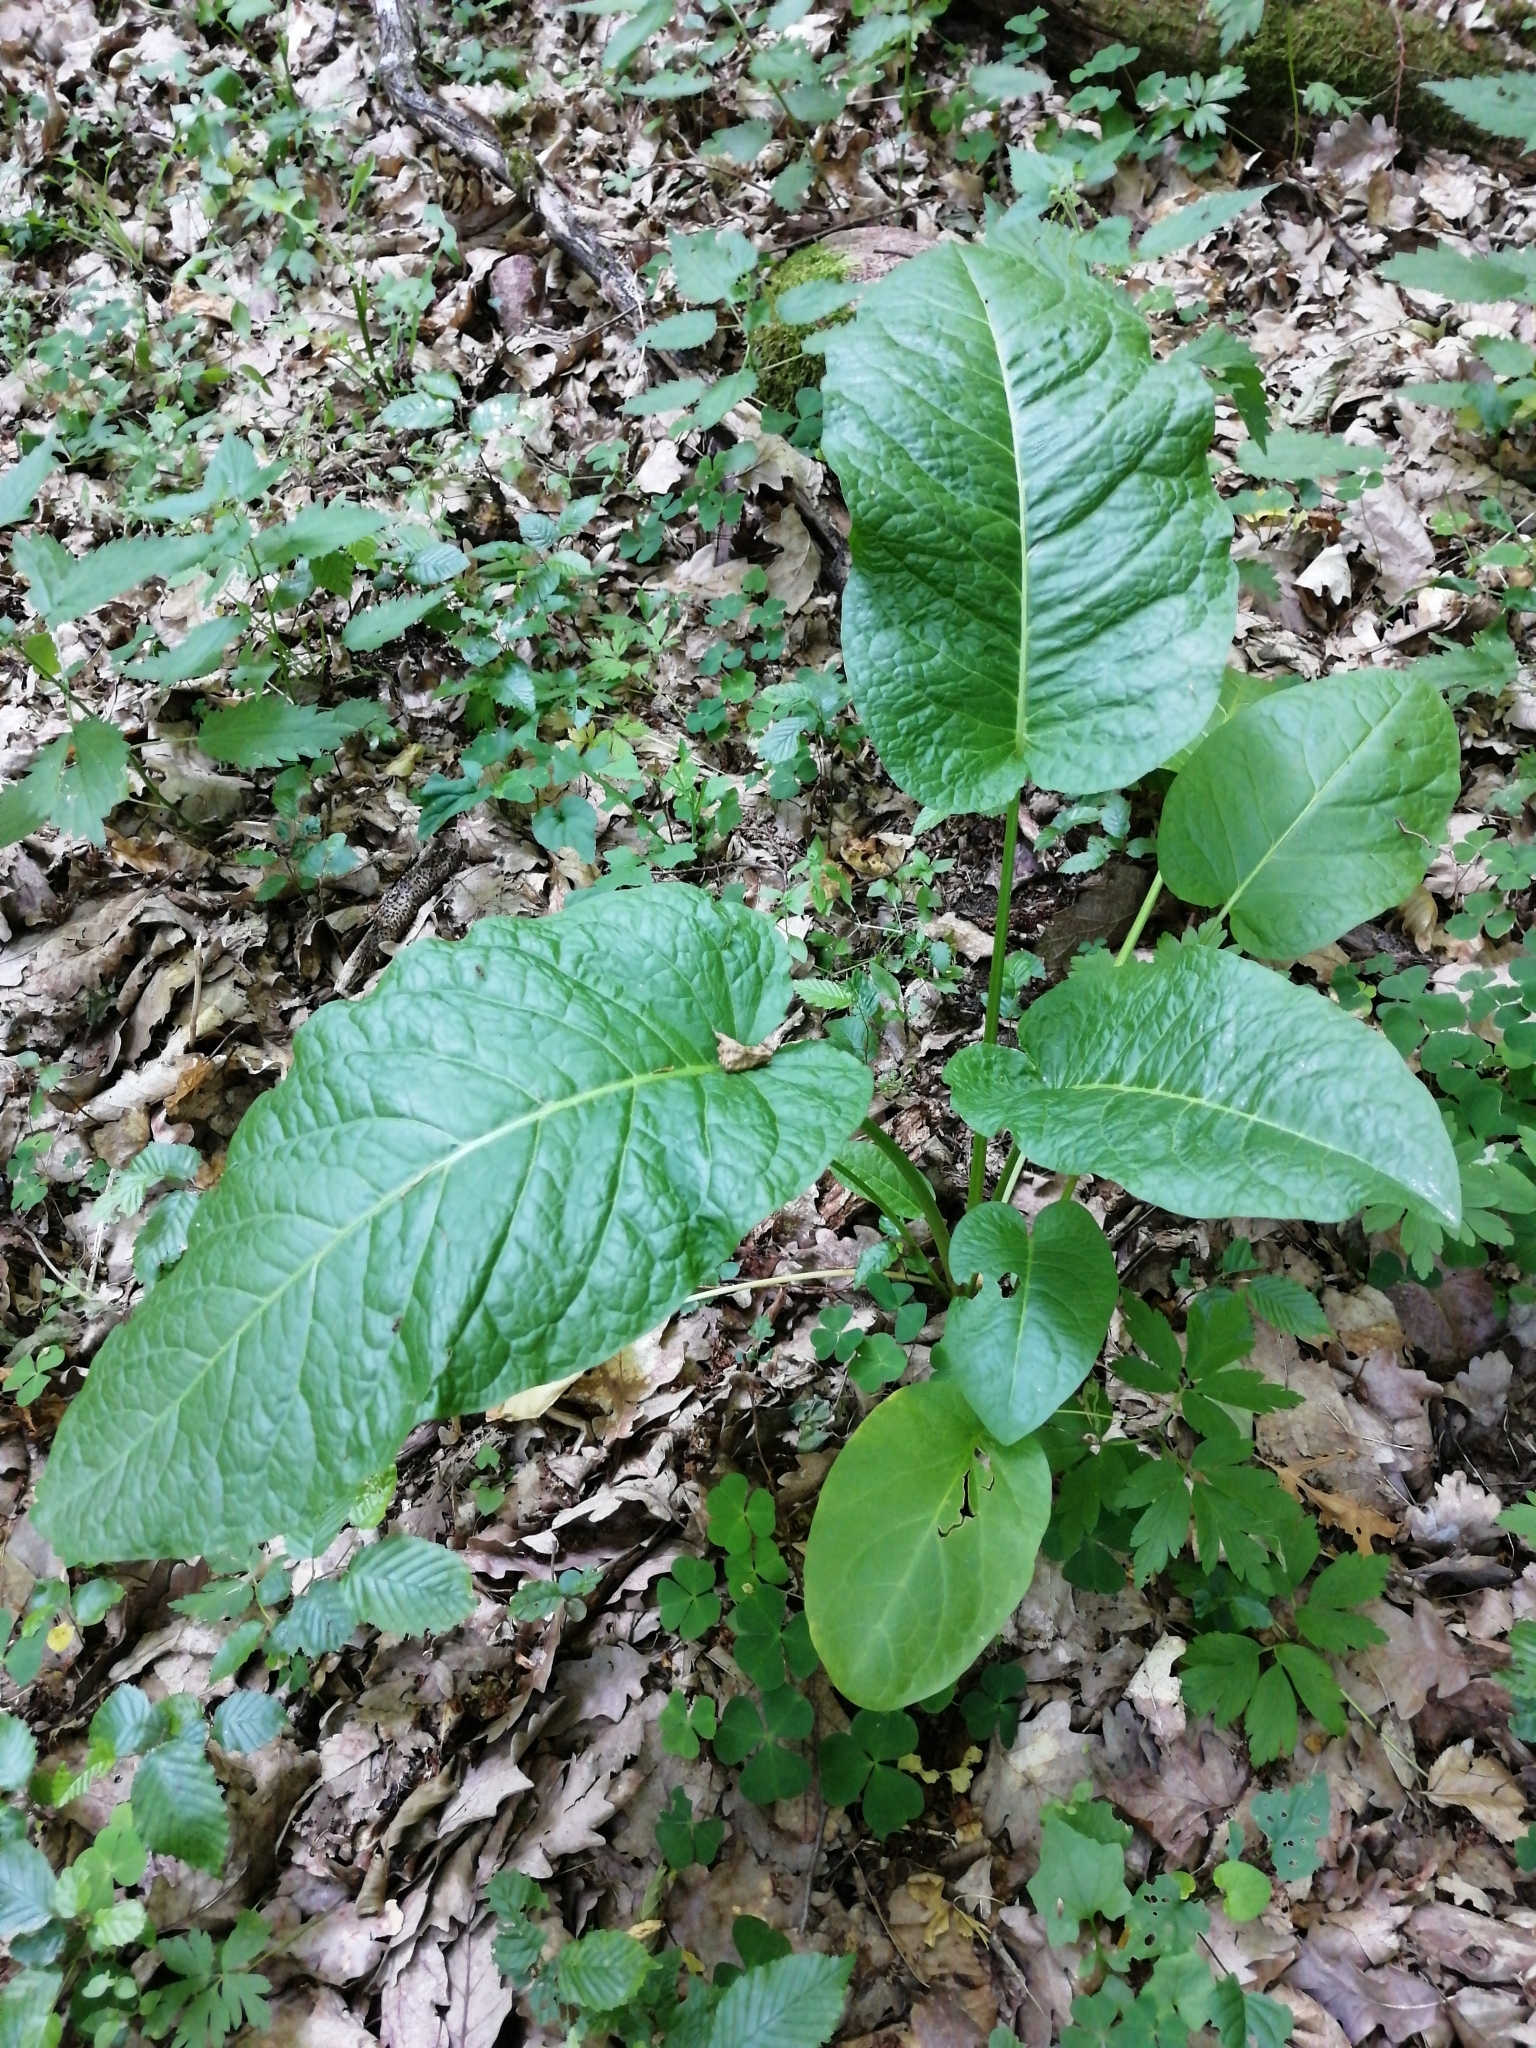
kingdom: Plantae
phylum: Tracheophyta
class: Magnoliopsida
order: Caryophyllales
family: Polygonaceae
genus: Rumex
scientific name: Rumex obtusifolius
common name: Bitter dock
